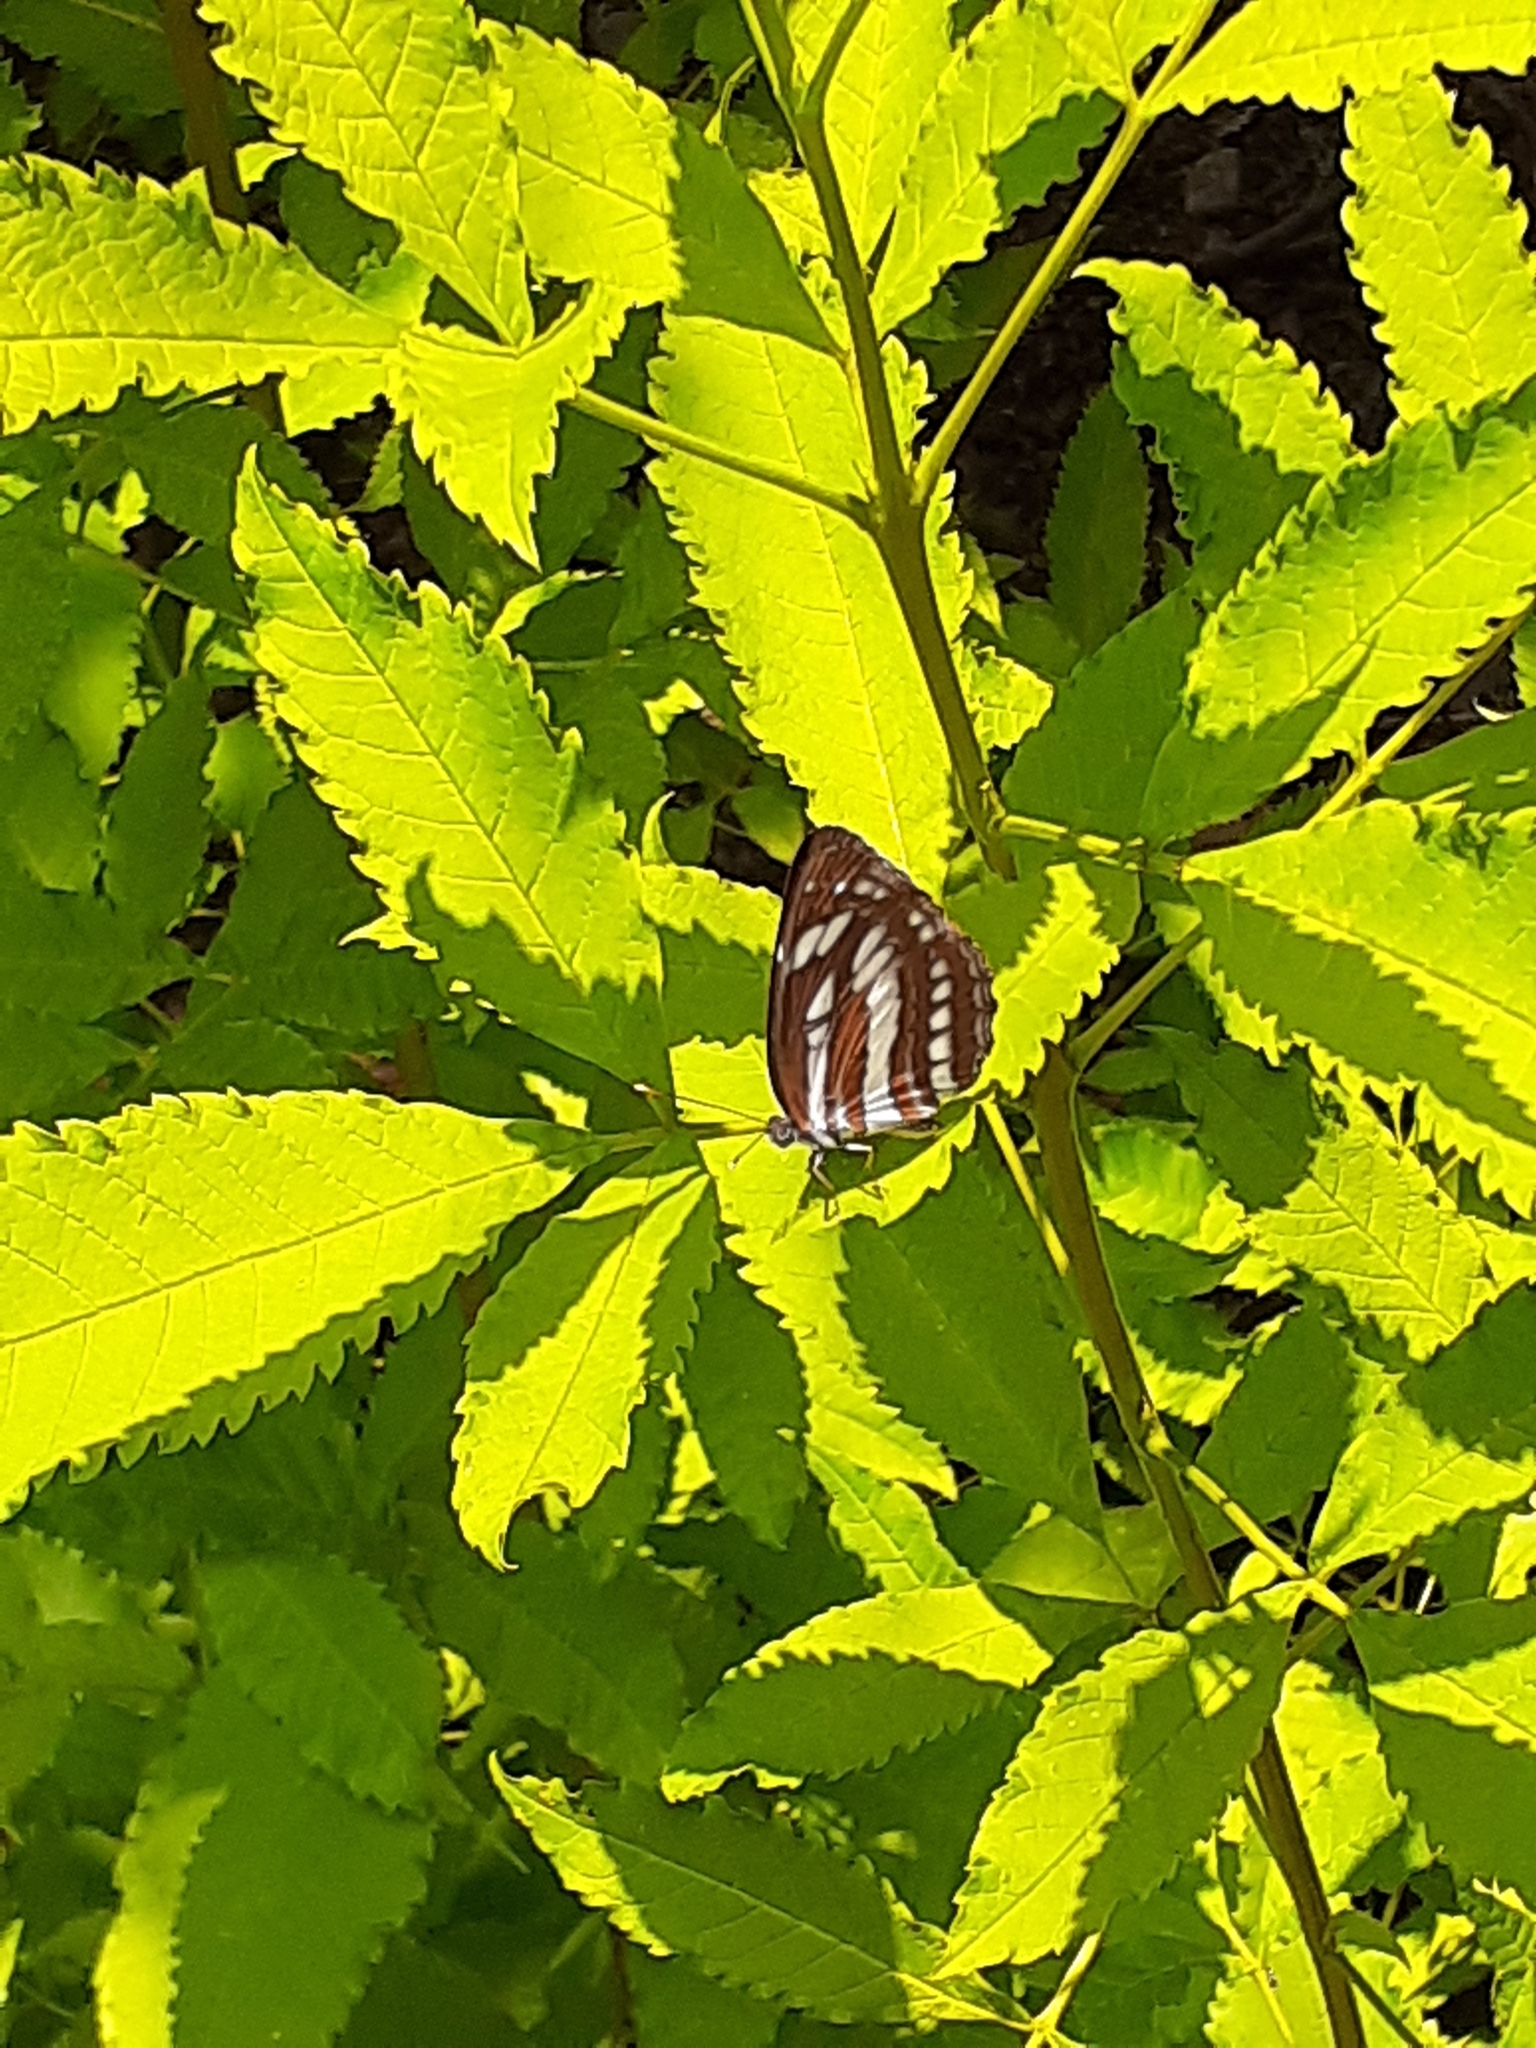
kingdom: Animalia
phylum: Arthropoda
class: Insecta
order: Lepidoptera
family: Nymphalidae
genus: Neptis
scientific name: Neptis hylas
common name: Common sailer
